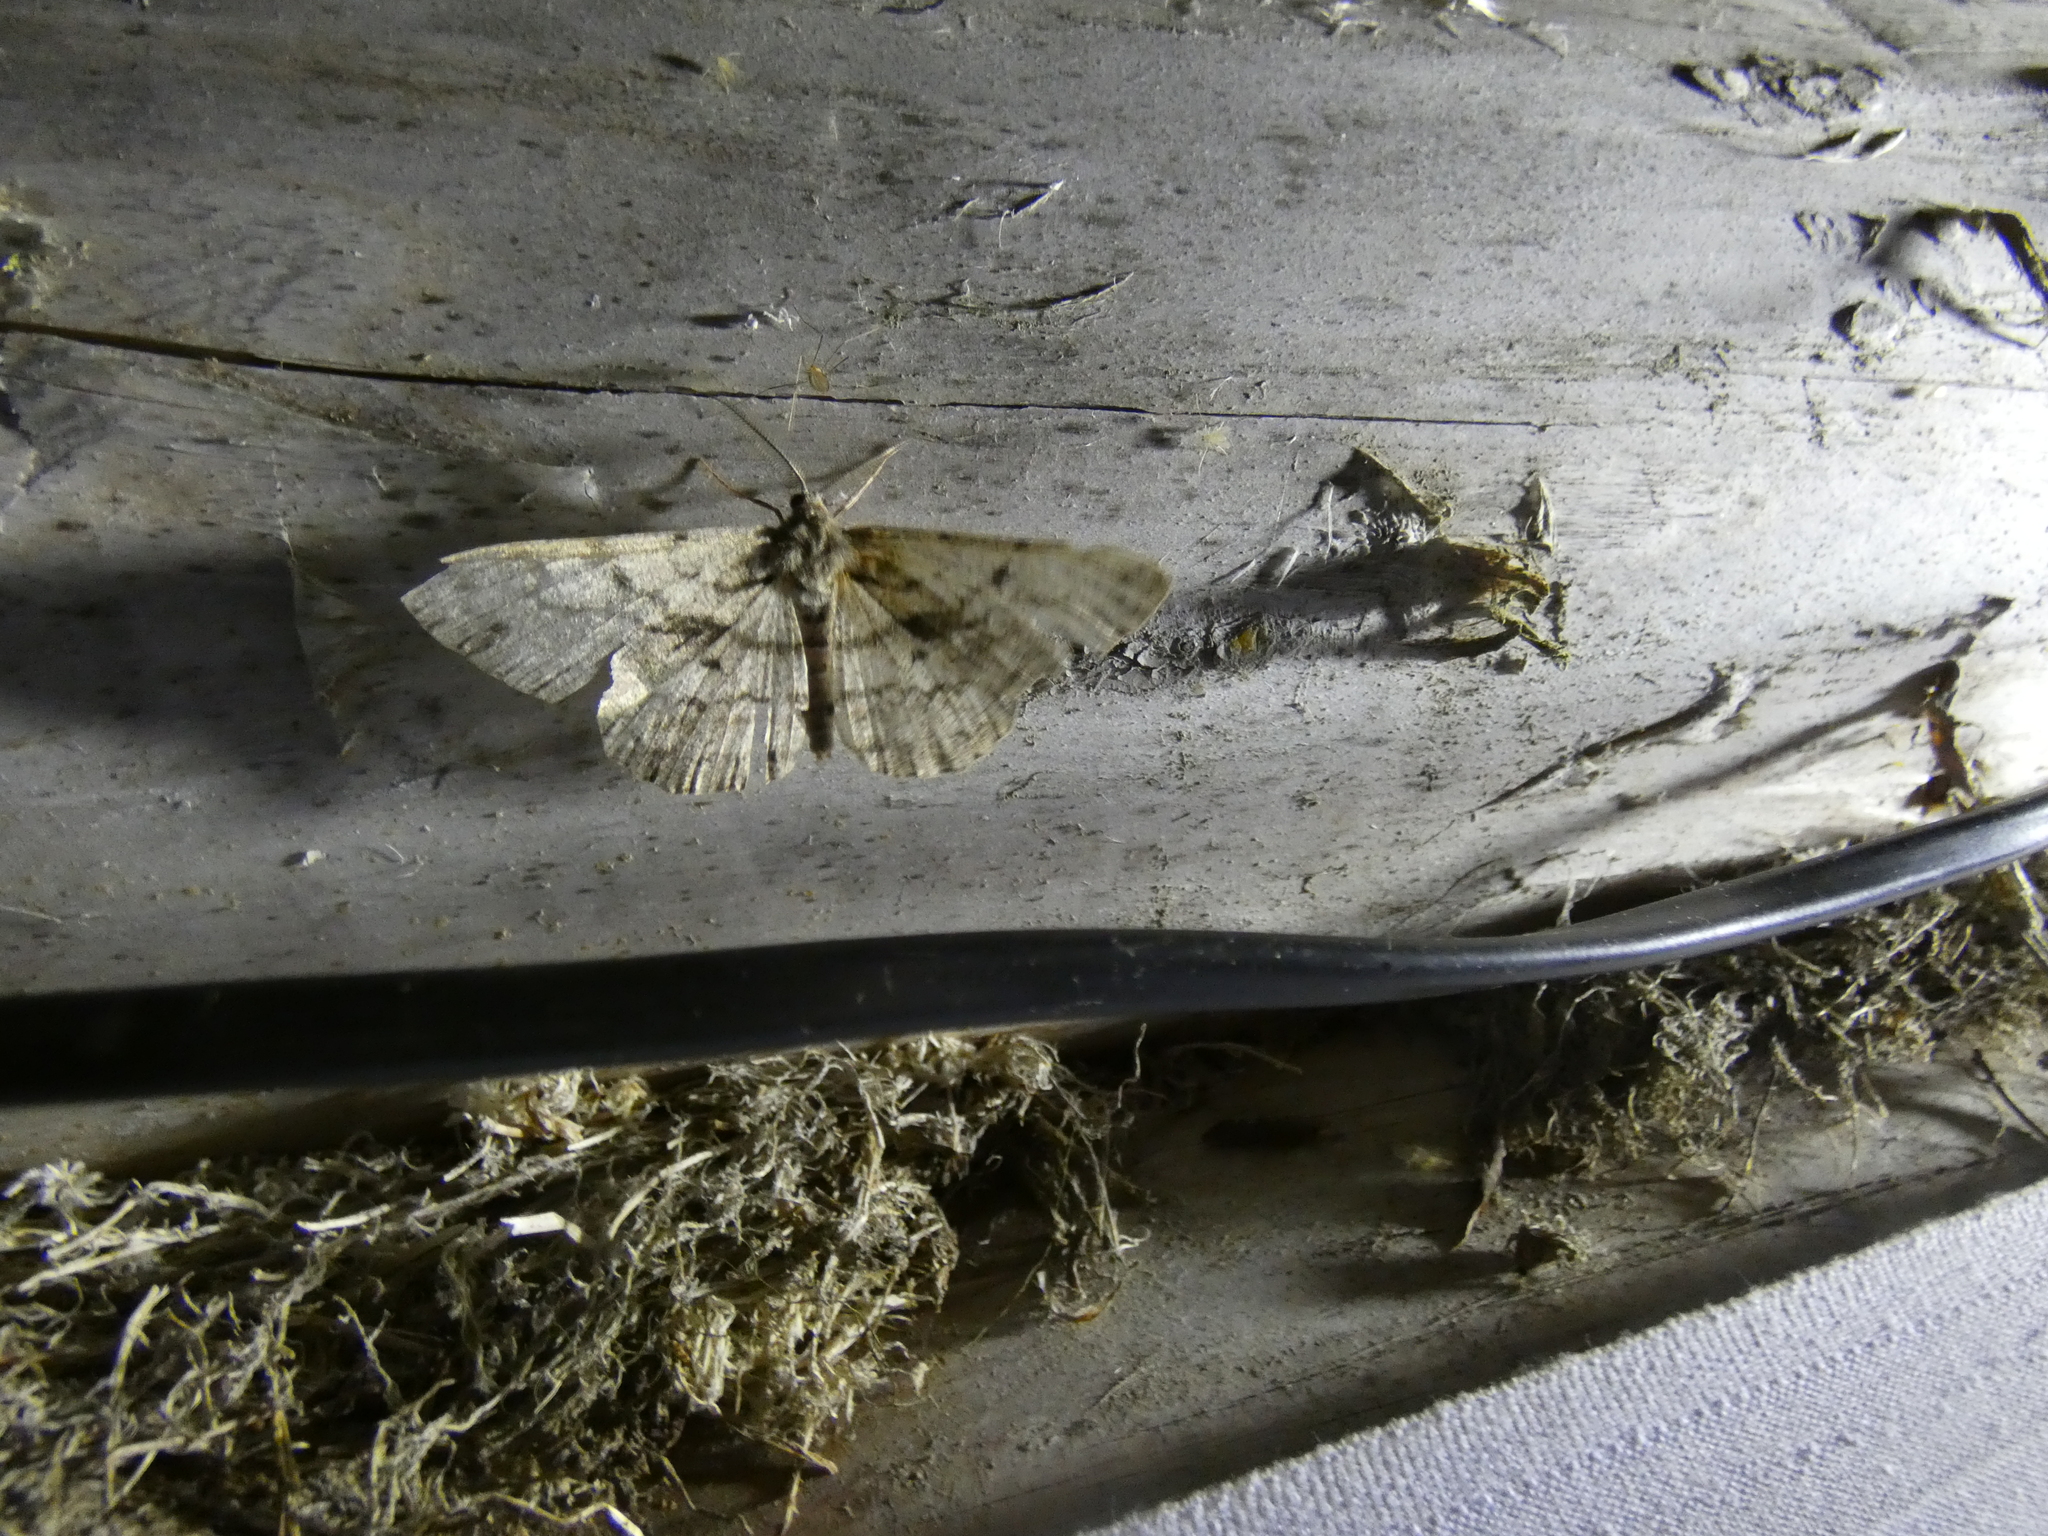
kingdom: Animalia
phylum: Arthropoda
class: Insecta
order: Lepidoptera
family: Geometridae
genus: Hypomecis
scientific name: Hypomecis roboraria
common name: Great oak beauty
